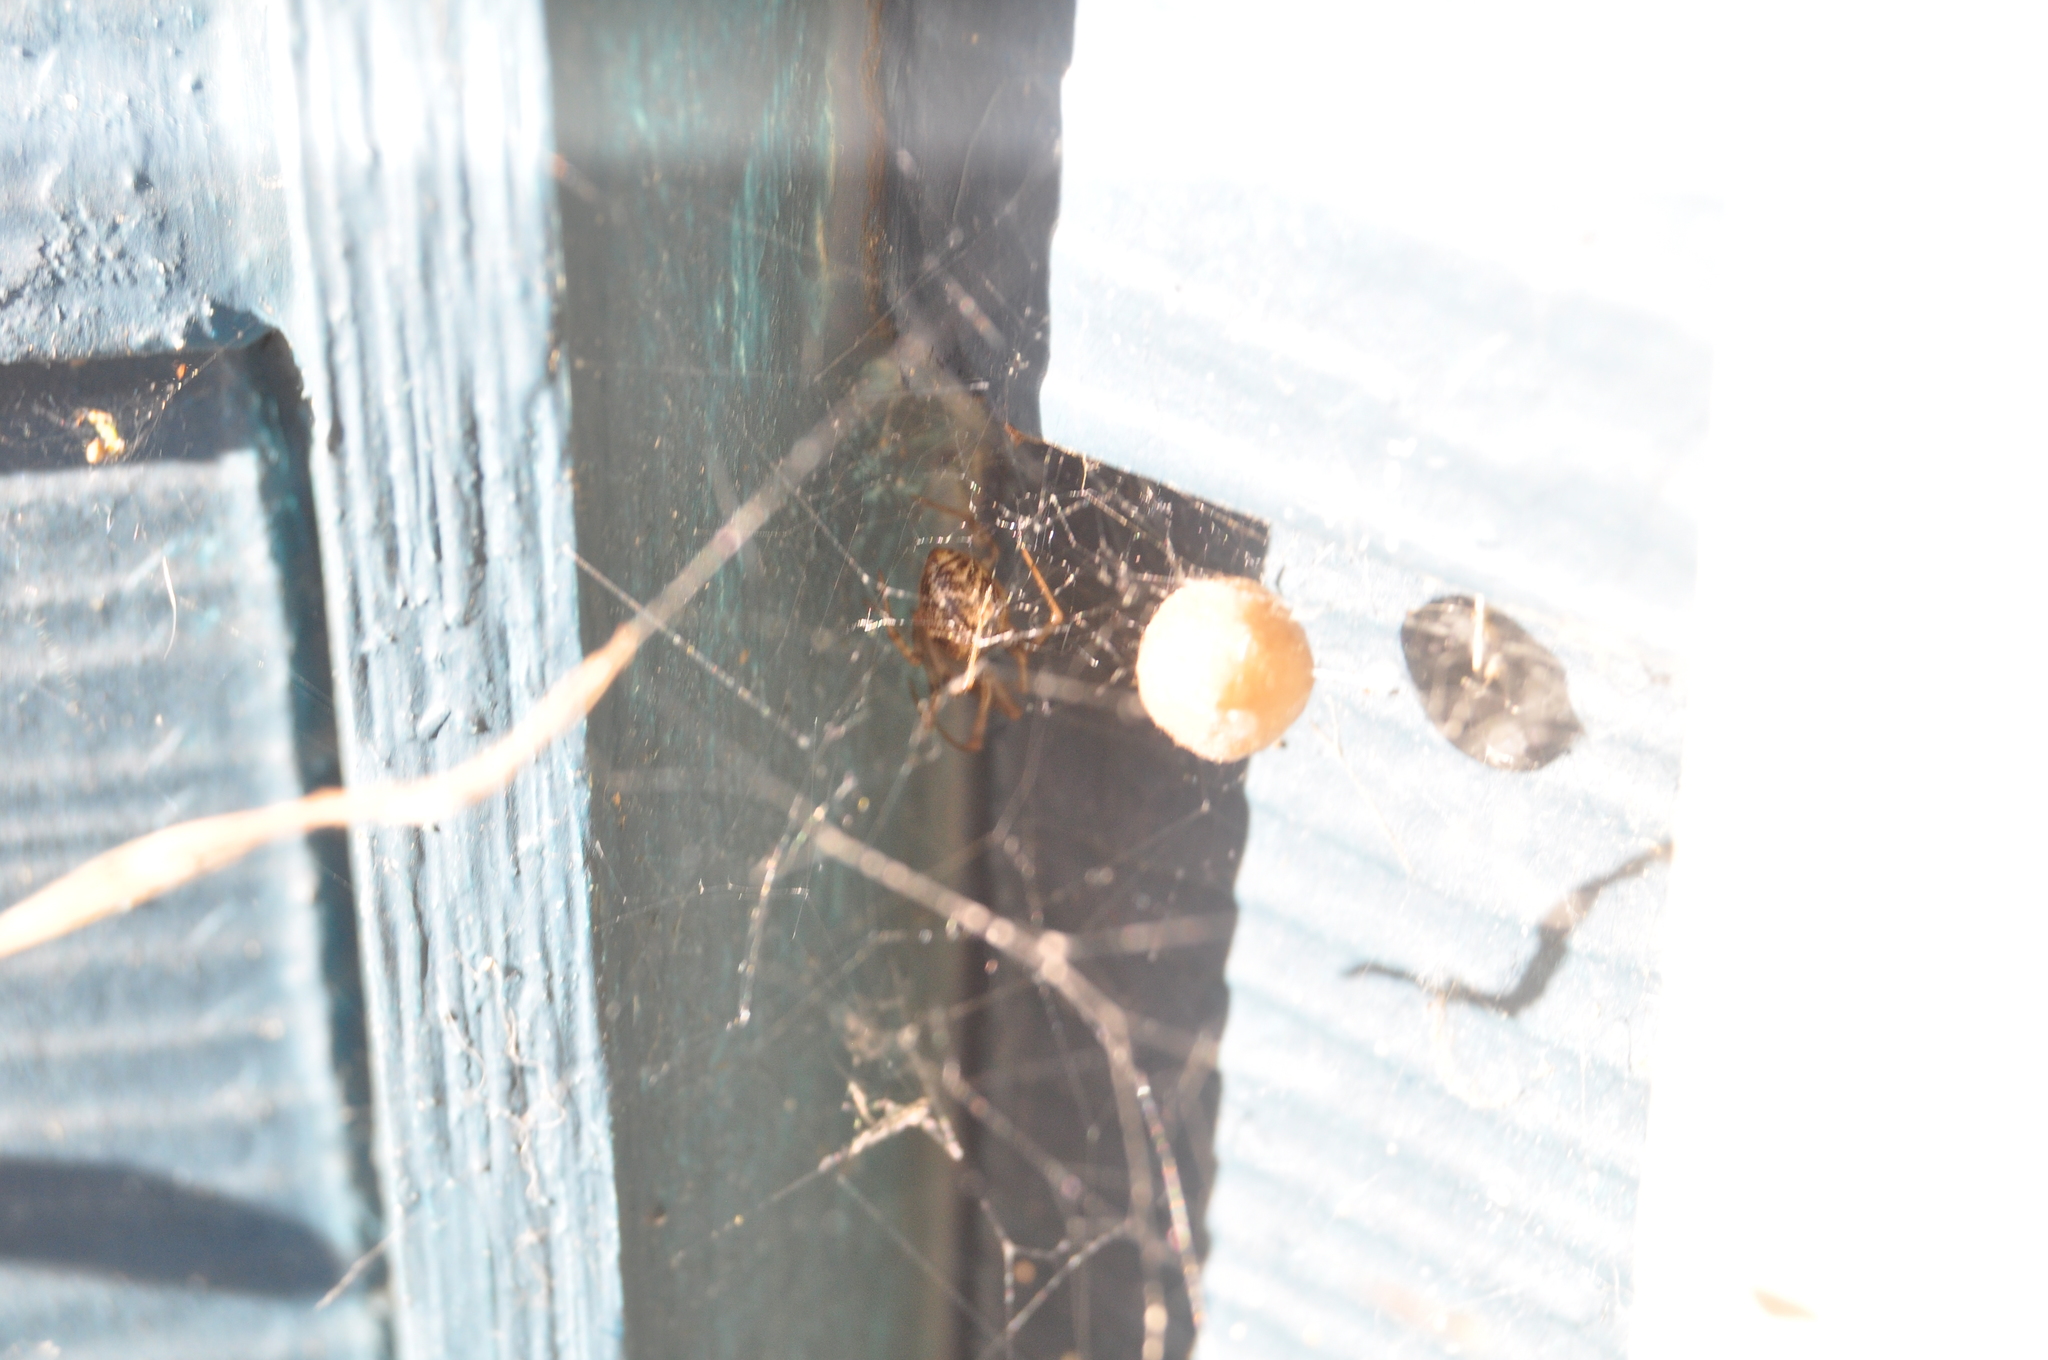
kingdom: Animalia
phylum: Arthropoda
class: Arachnida
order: Araneae
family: Theridiidae
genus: Parasteatoda
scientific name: Parasteatoda tepidariorum
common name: Common house spider
